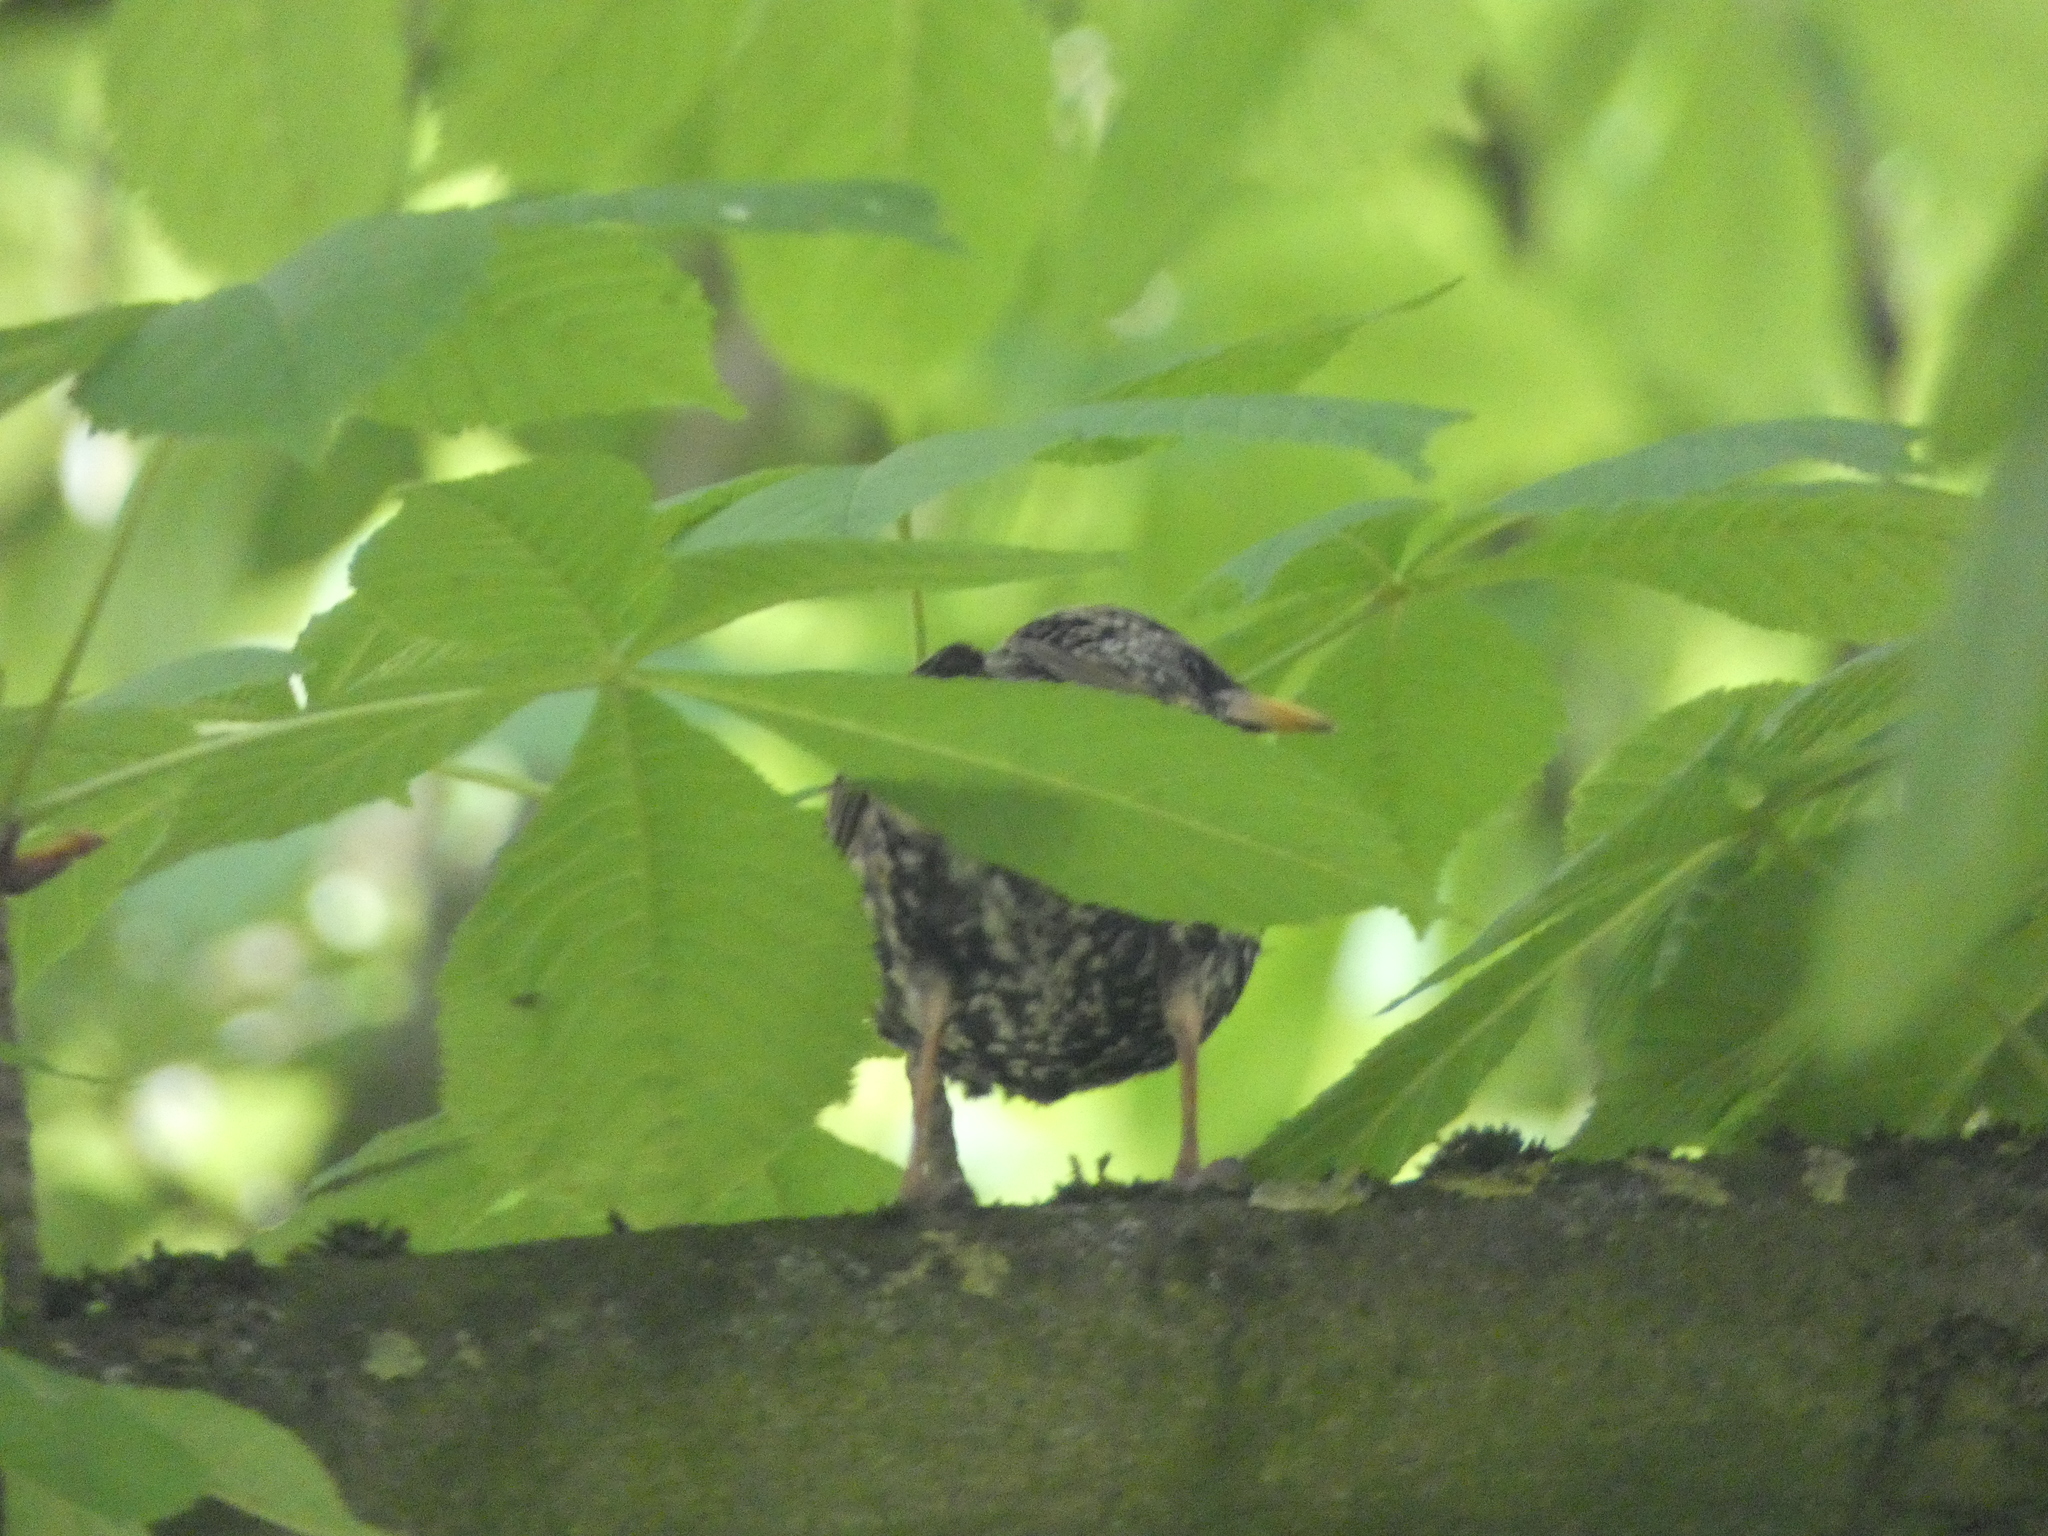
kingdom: Animalia
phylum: Chordata
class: Aves
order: Passeriformes
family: Sturnidae
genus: Sturnus
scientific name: Sturnus vulgaris
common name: Common starling
